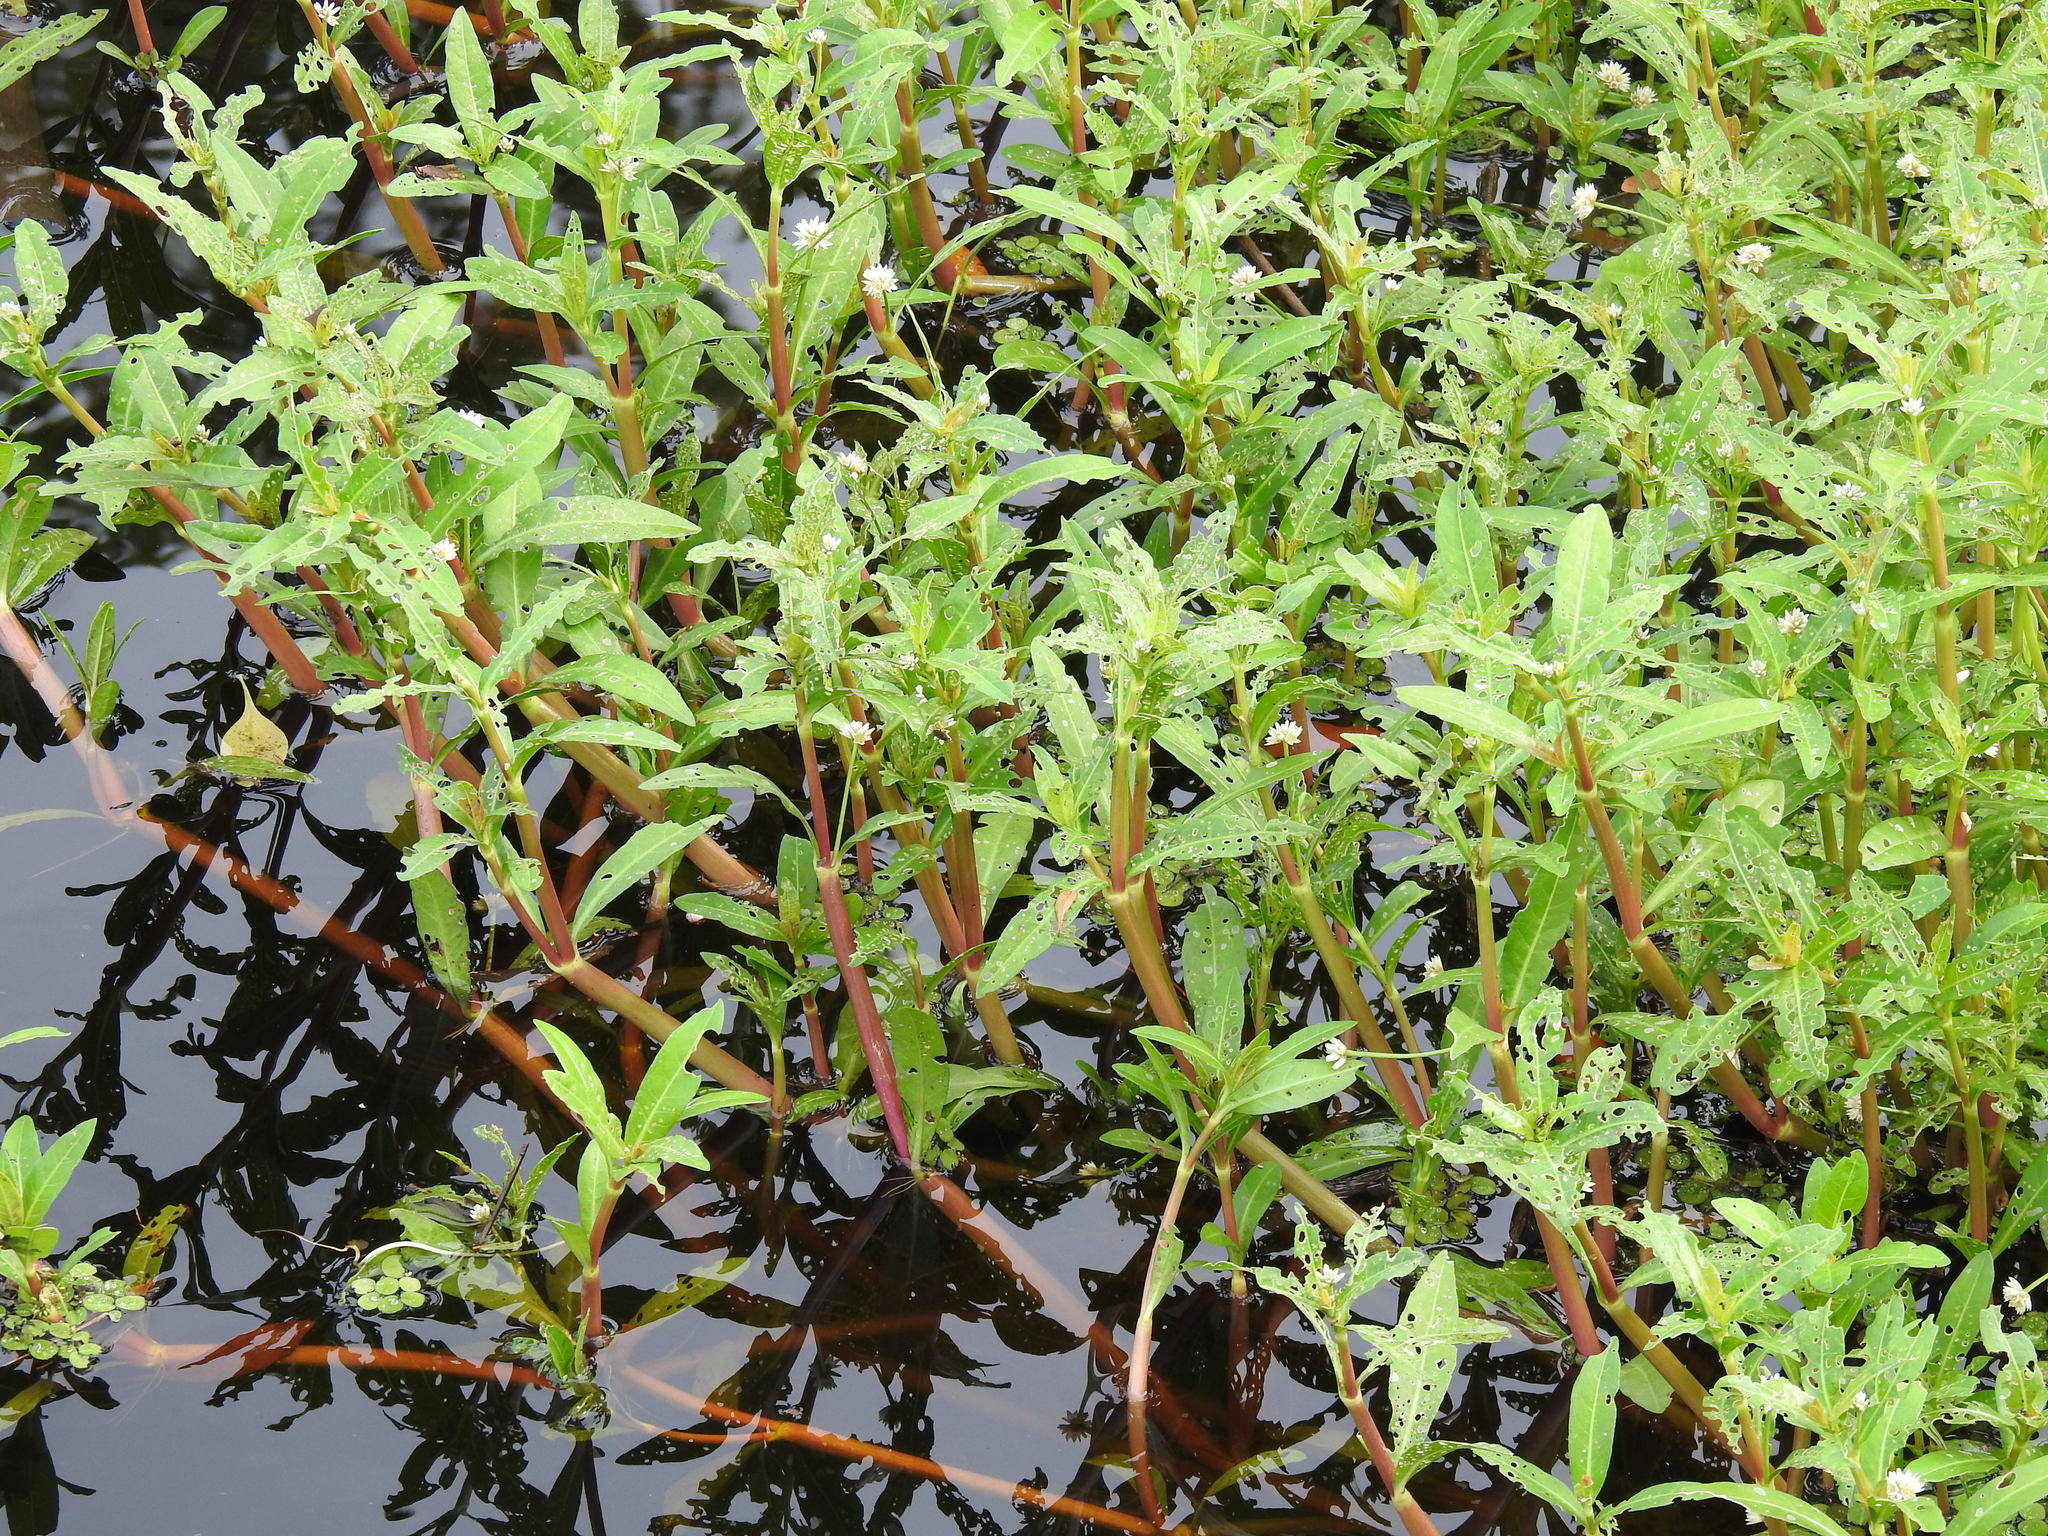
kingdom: Plantae
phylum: Tracheophyta
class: Magnoliopsida
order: Caryophyllales
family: Amaranthaceae
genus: Alternanthera
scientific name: Alternanthera philoxeroides
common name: Alligatorweed
